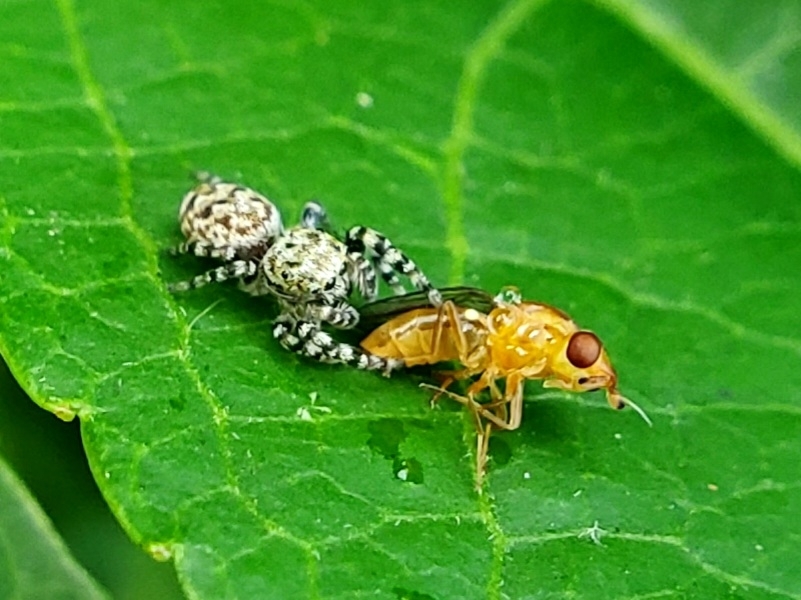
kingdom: Animalia
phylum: Arthropoda
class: Arachnida
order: Araneae
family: Salticidae
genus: Pelegrina
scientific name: Pelegrina galathea
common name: Jumping spiders
